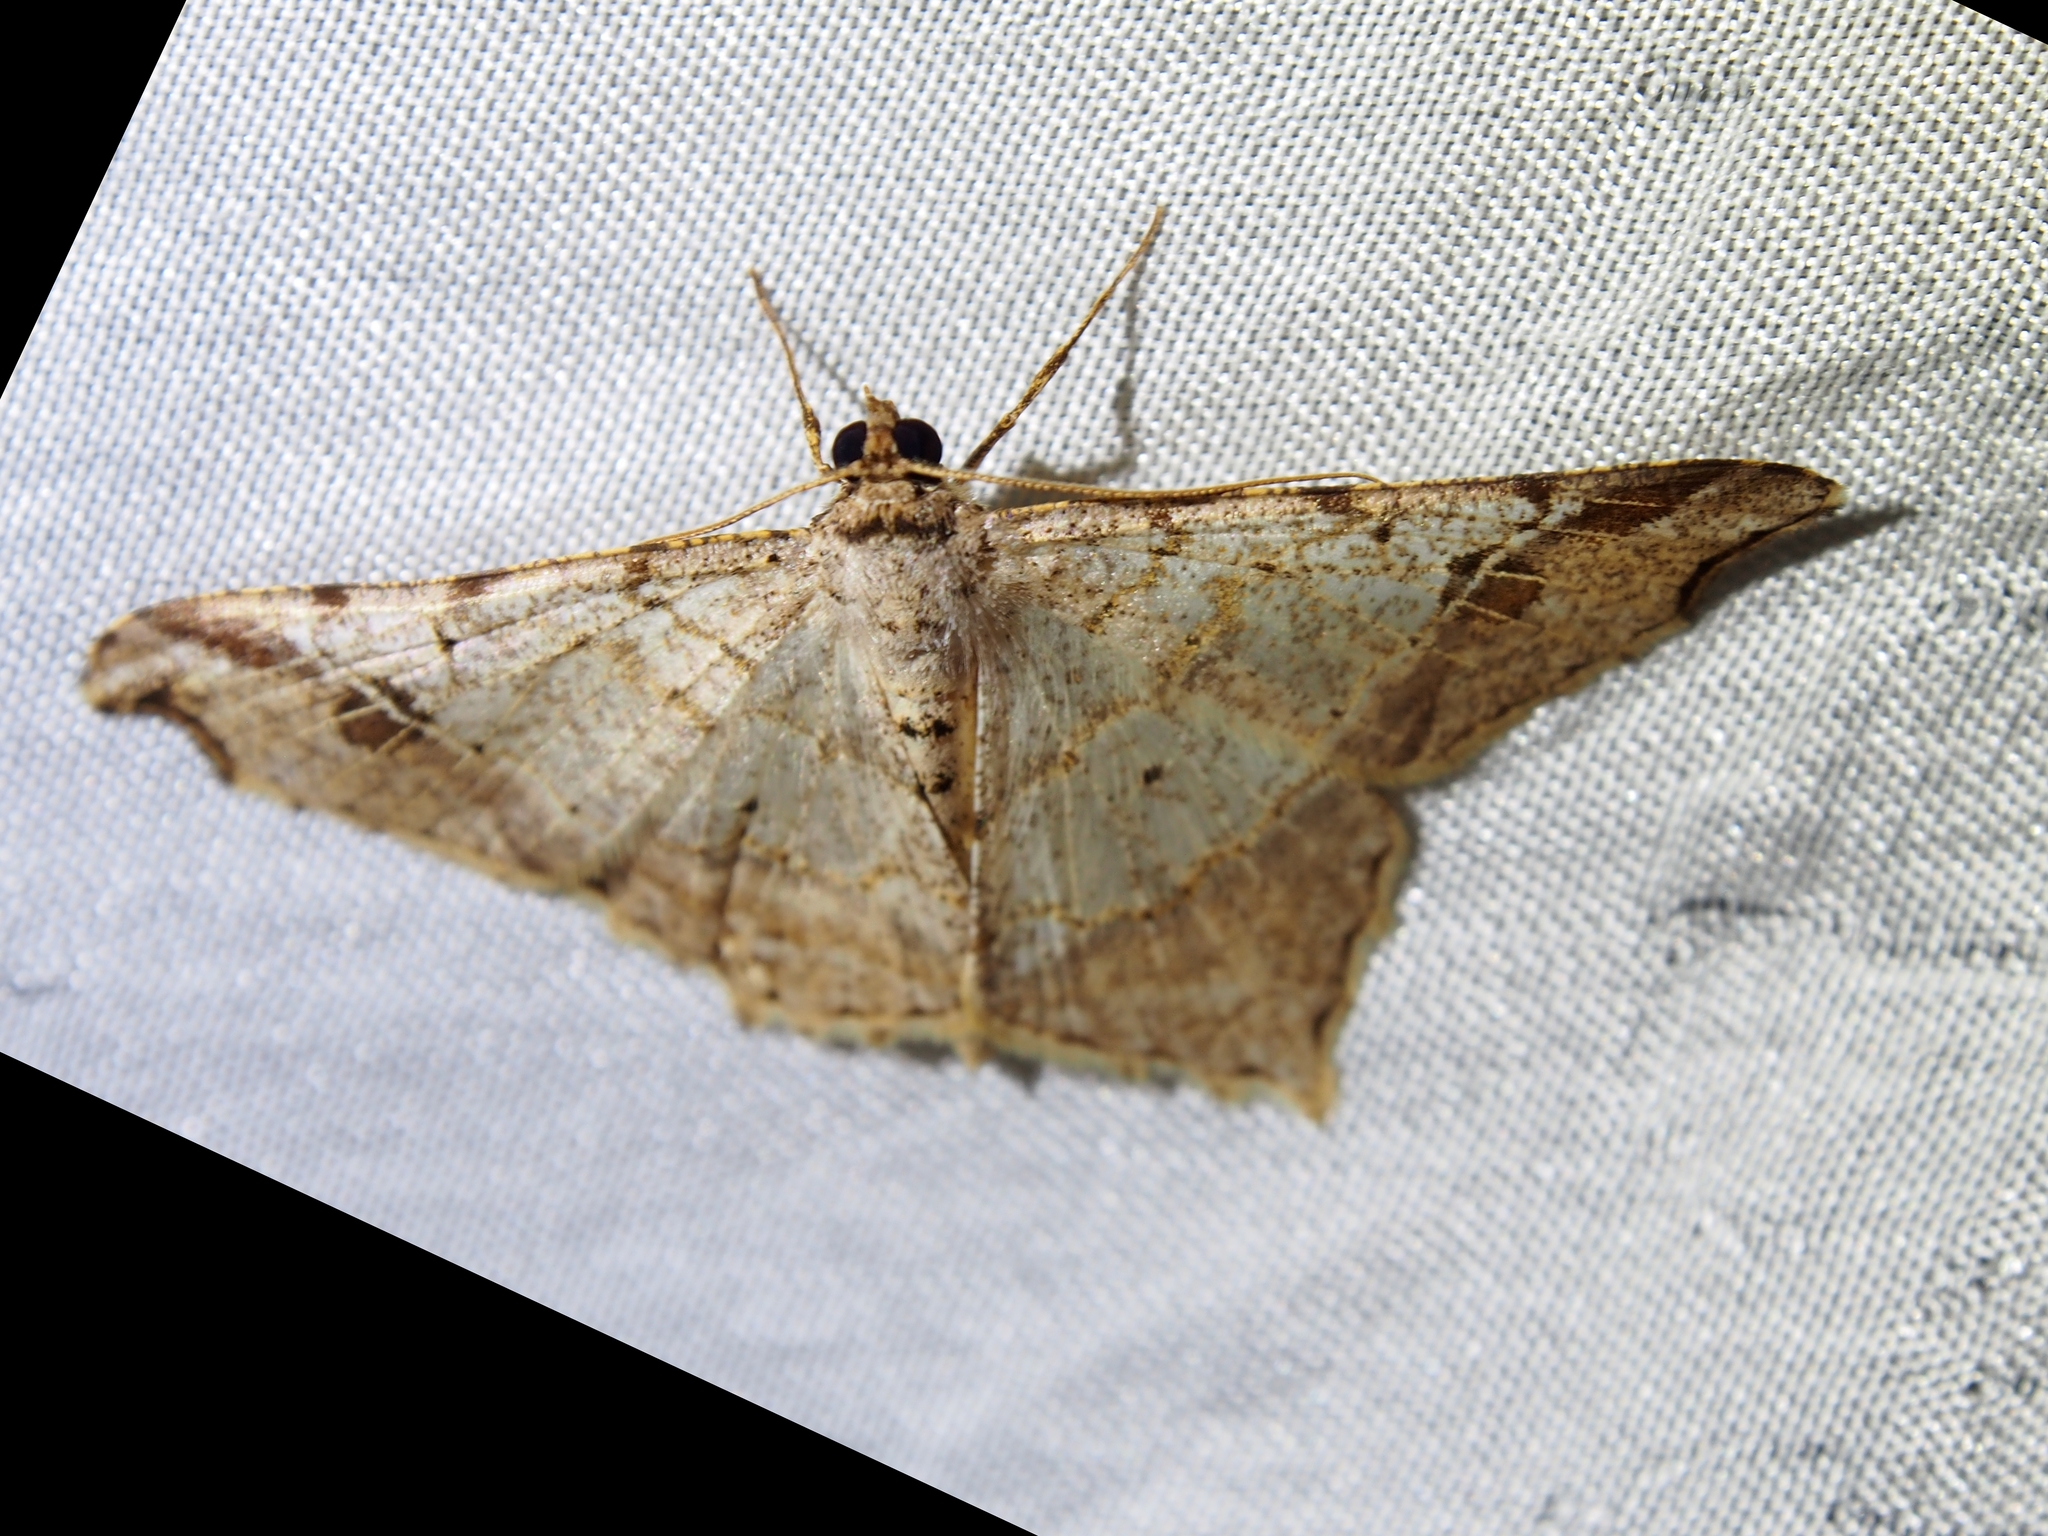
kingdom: Animalia
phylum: Arthropoda
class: Insecta
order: Lepidoptera
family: Geometridae
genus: Macaria
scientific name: Macaria regulata
